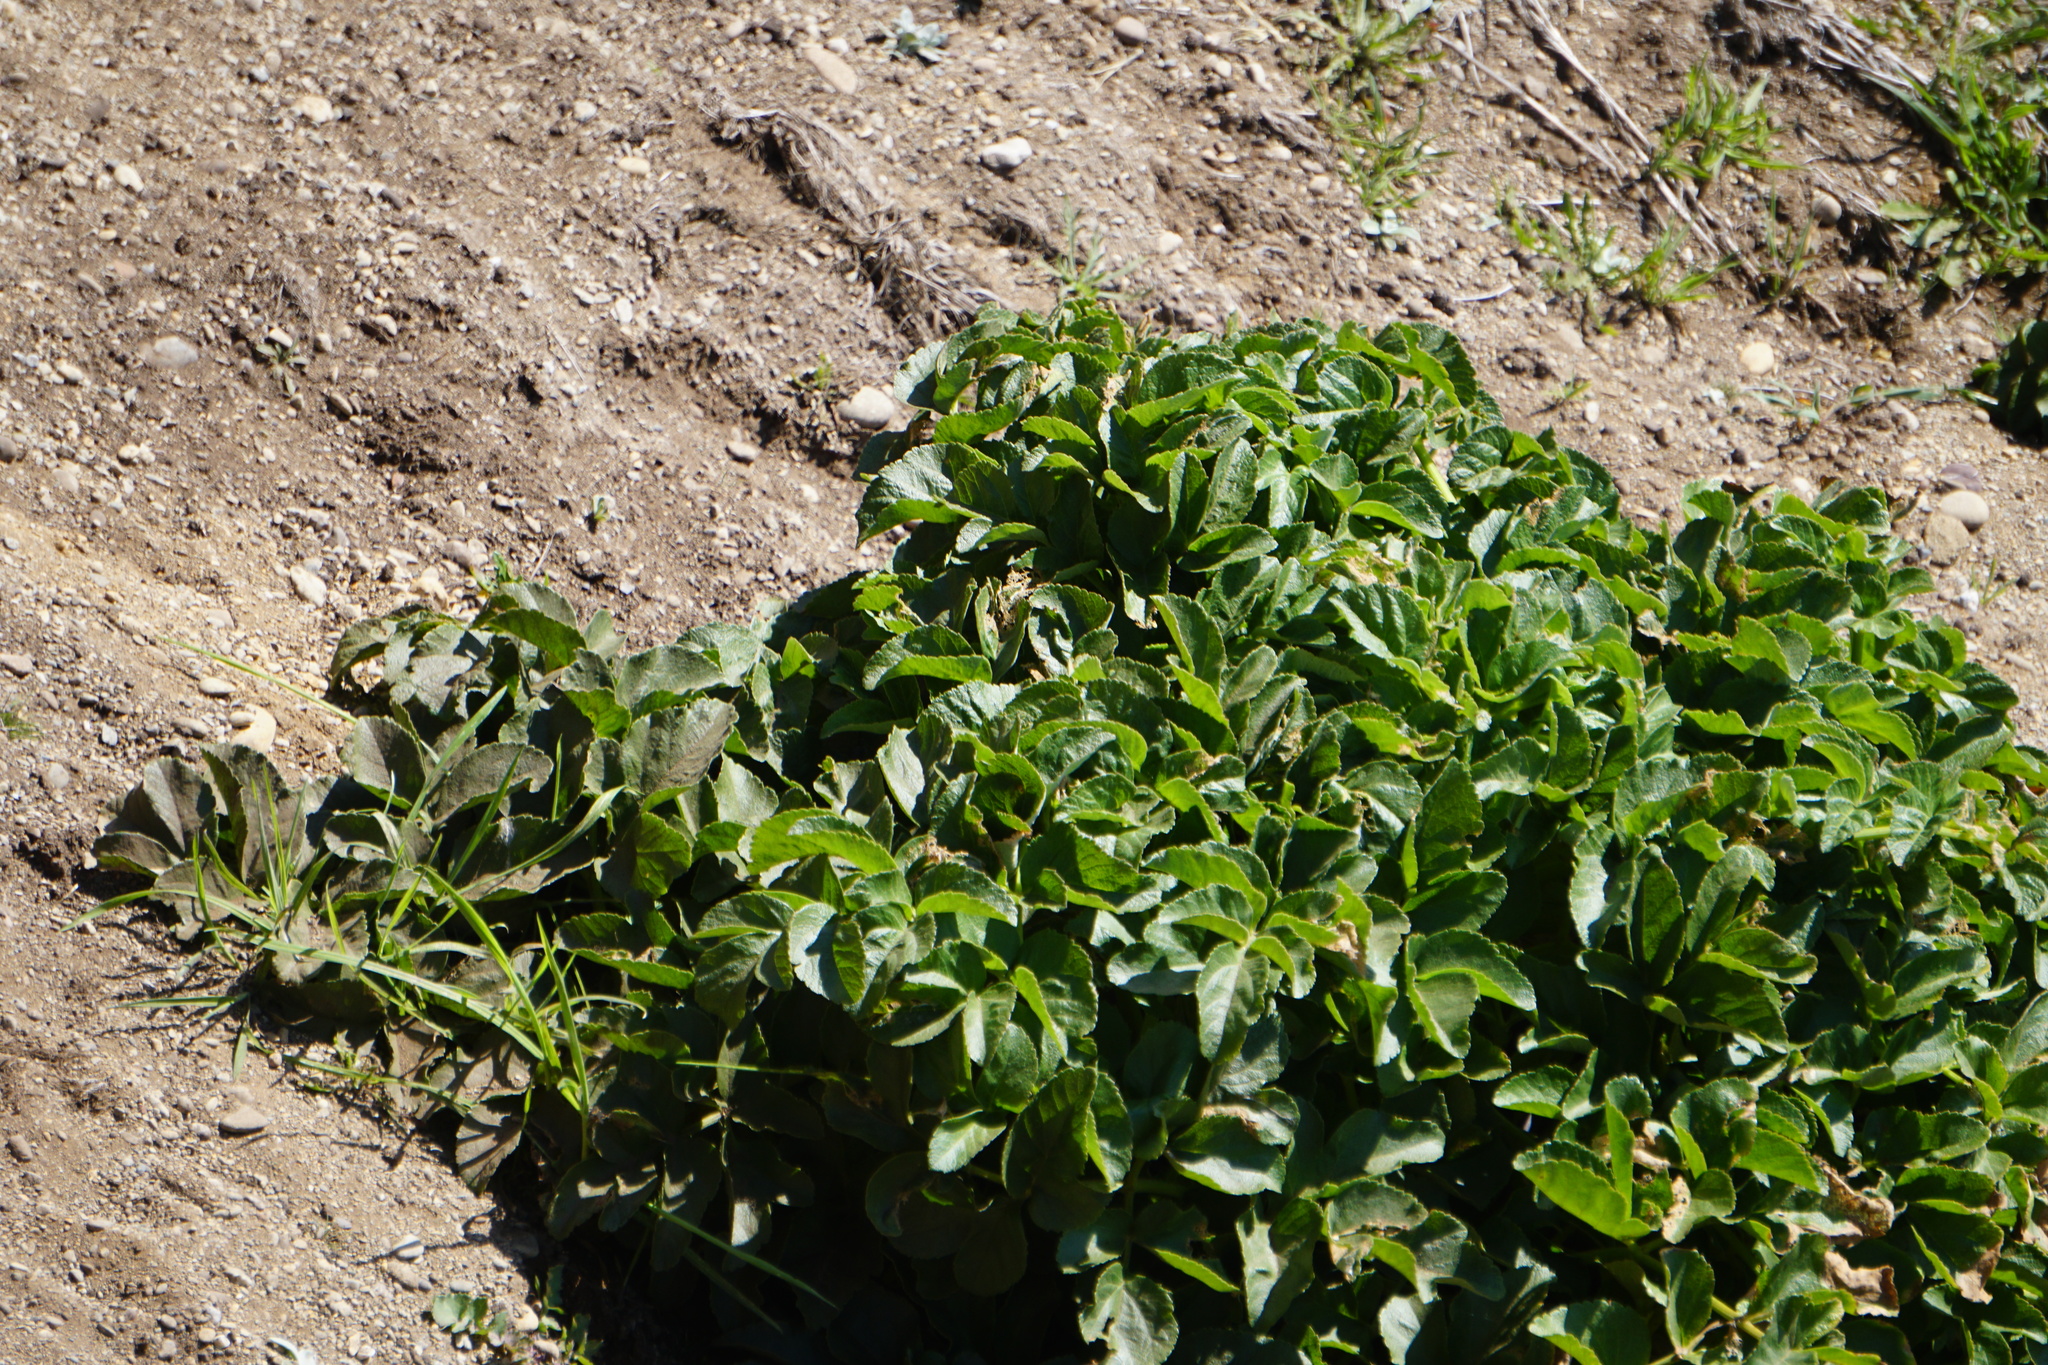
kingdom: Plantae
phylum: Tracheophyta
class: Magnoliopsida
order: Apiales
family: Apiaceae
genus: Angelica
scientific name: Angelica hendersonii
